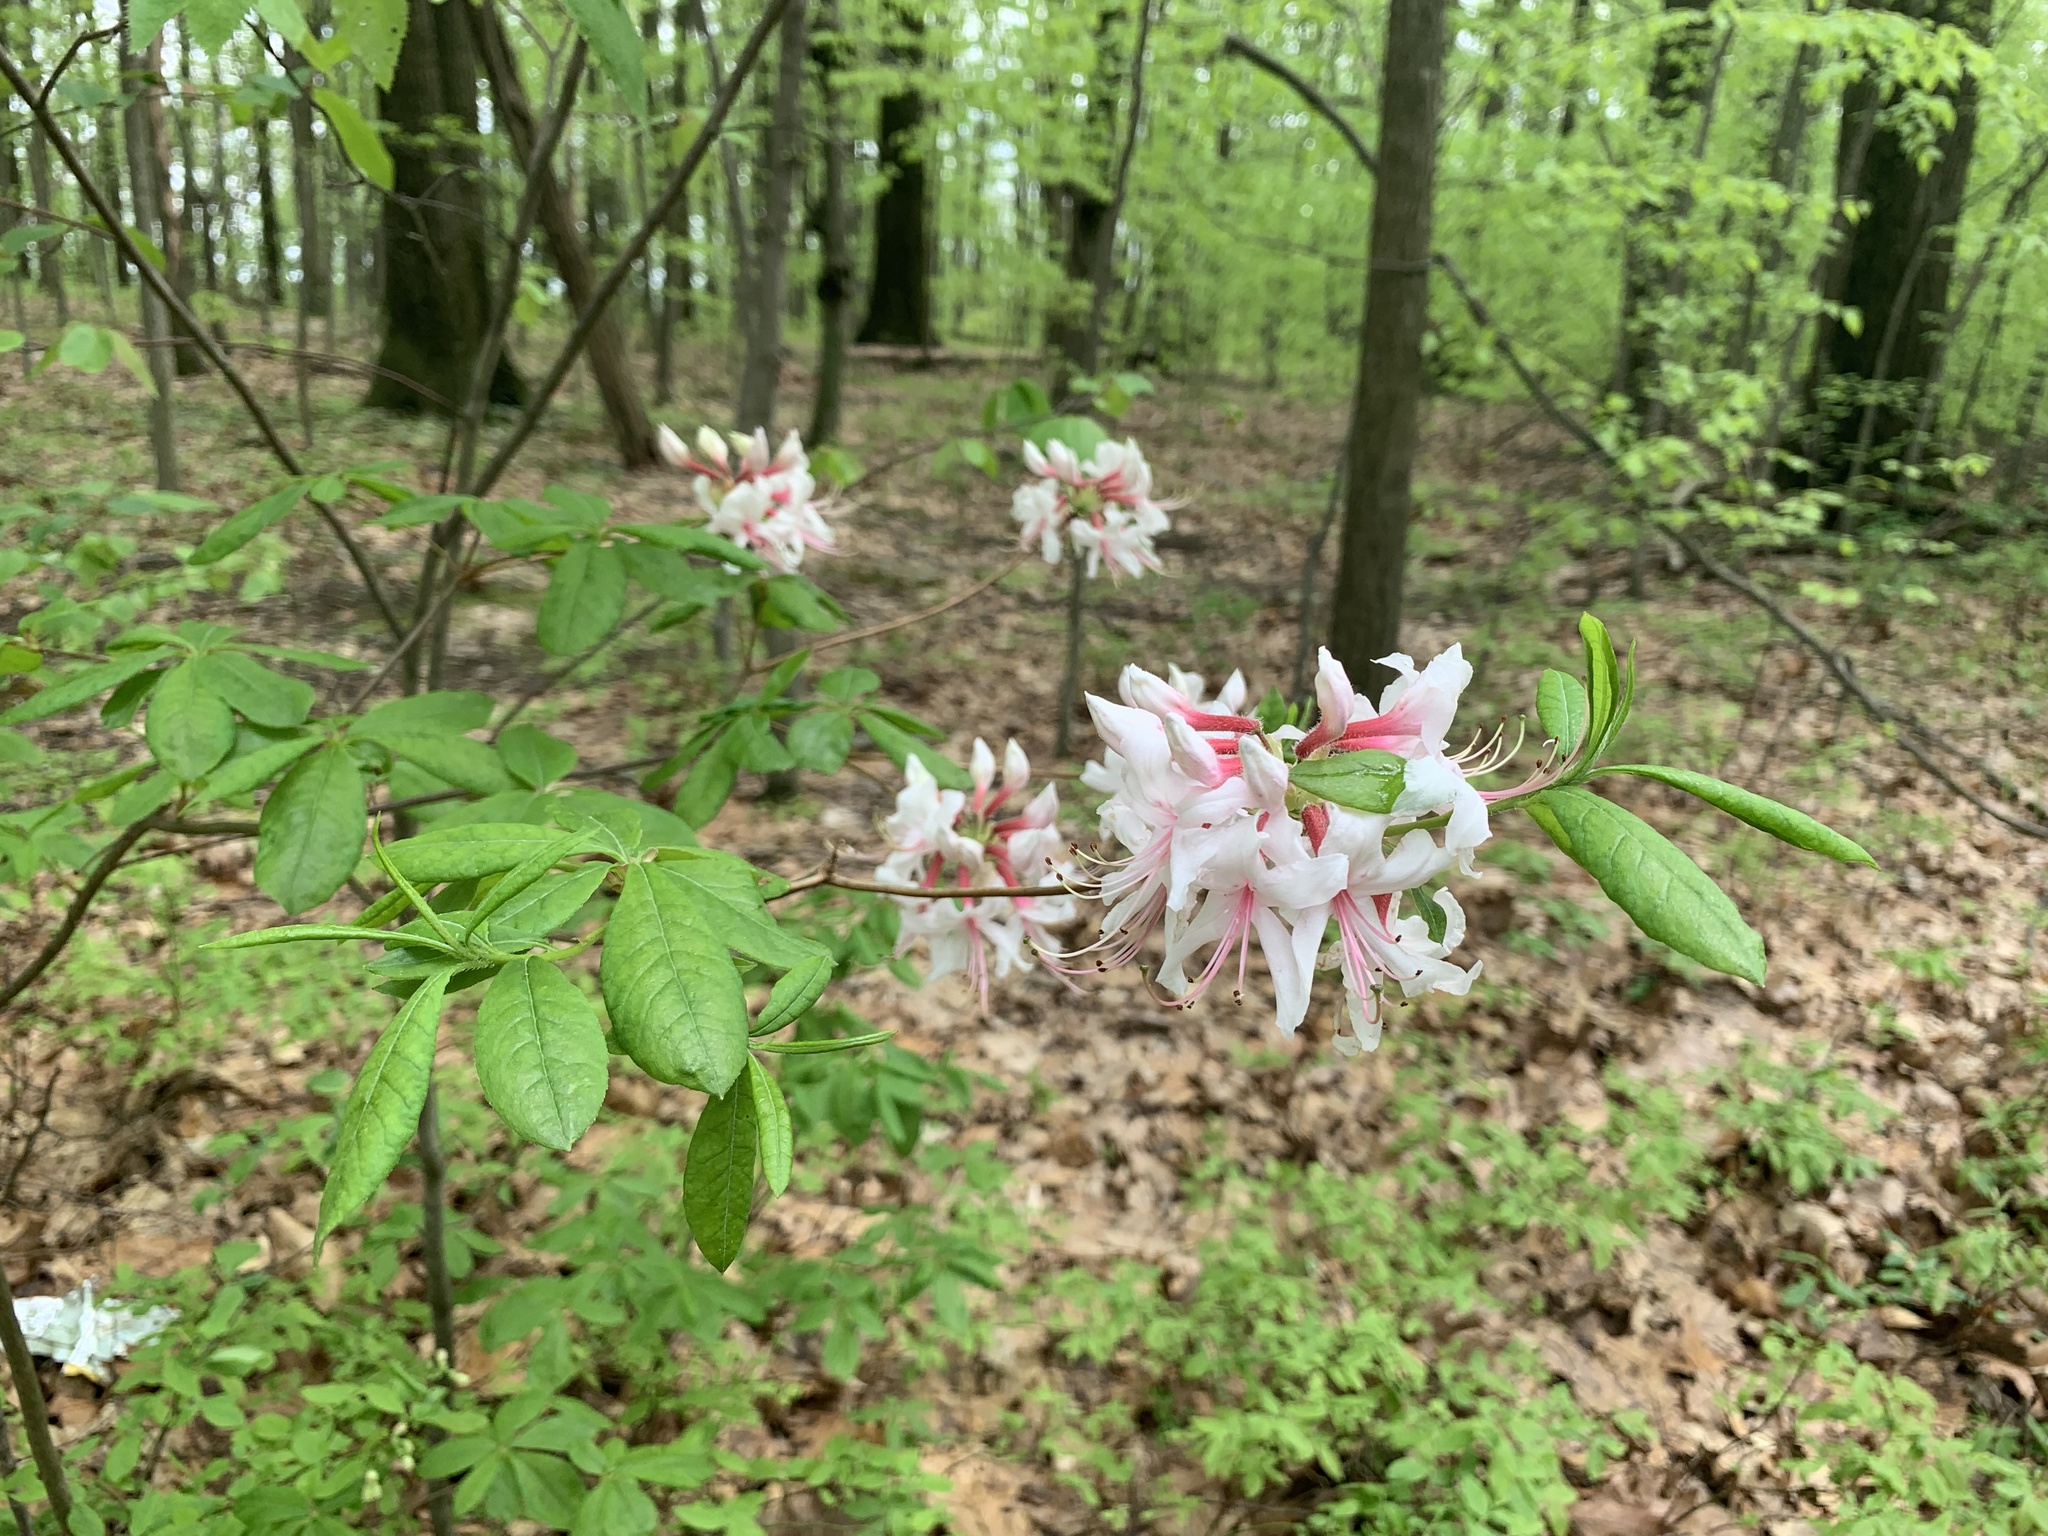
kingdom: Plantae
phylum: Tracheophyta
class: Magnoliopsida
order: Ericales
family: Ericaceae
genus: Rhododendron
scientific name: Rhododendron periclymenoides
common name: Election-pink
